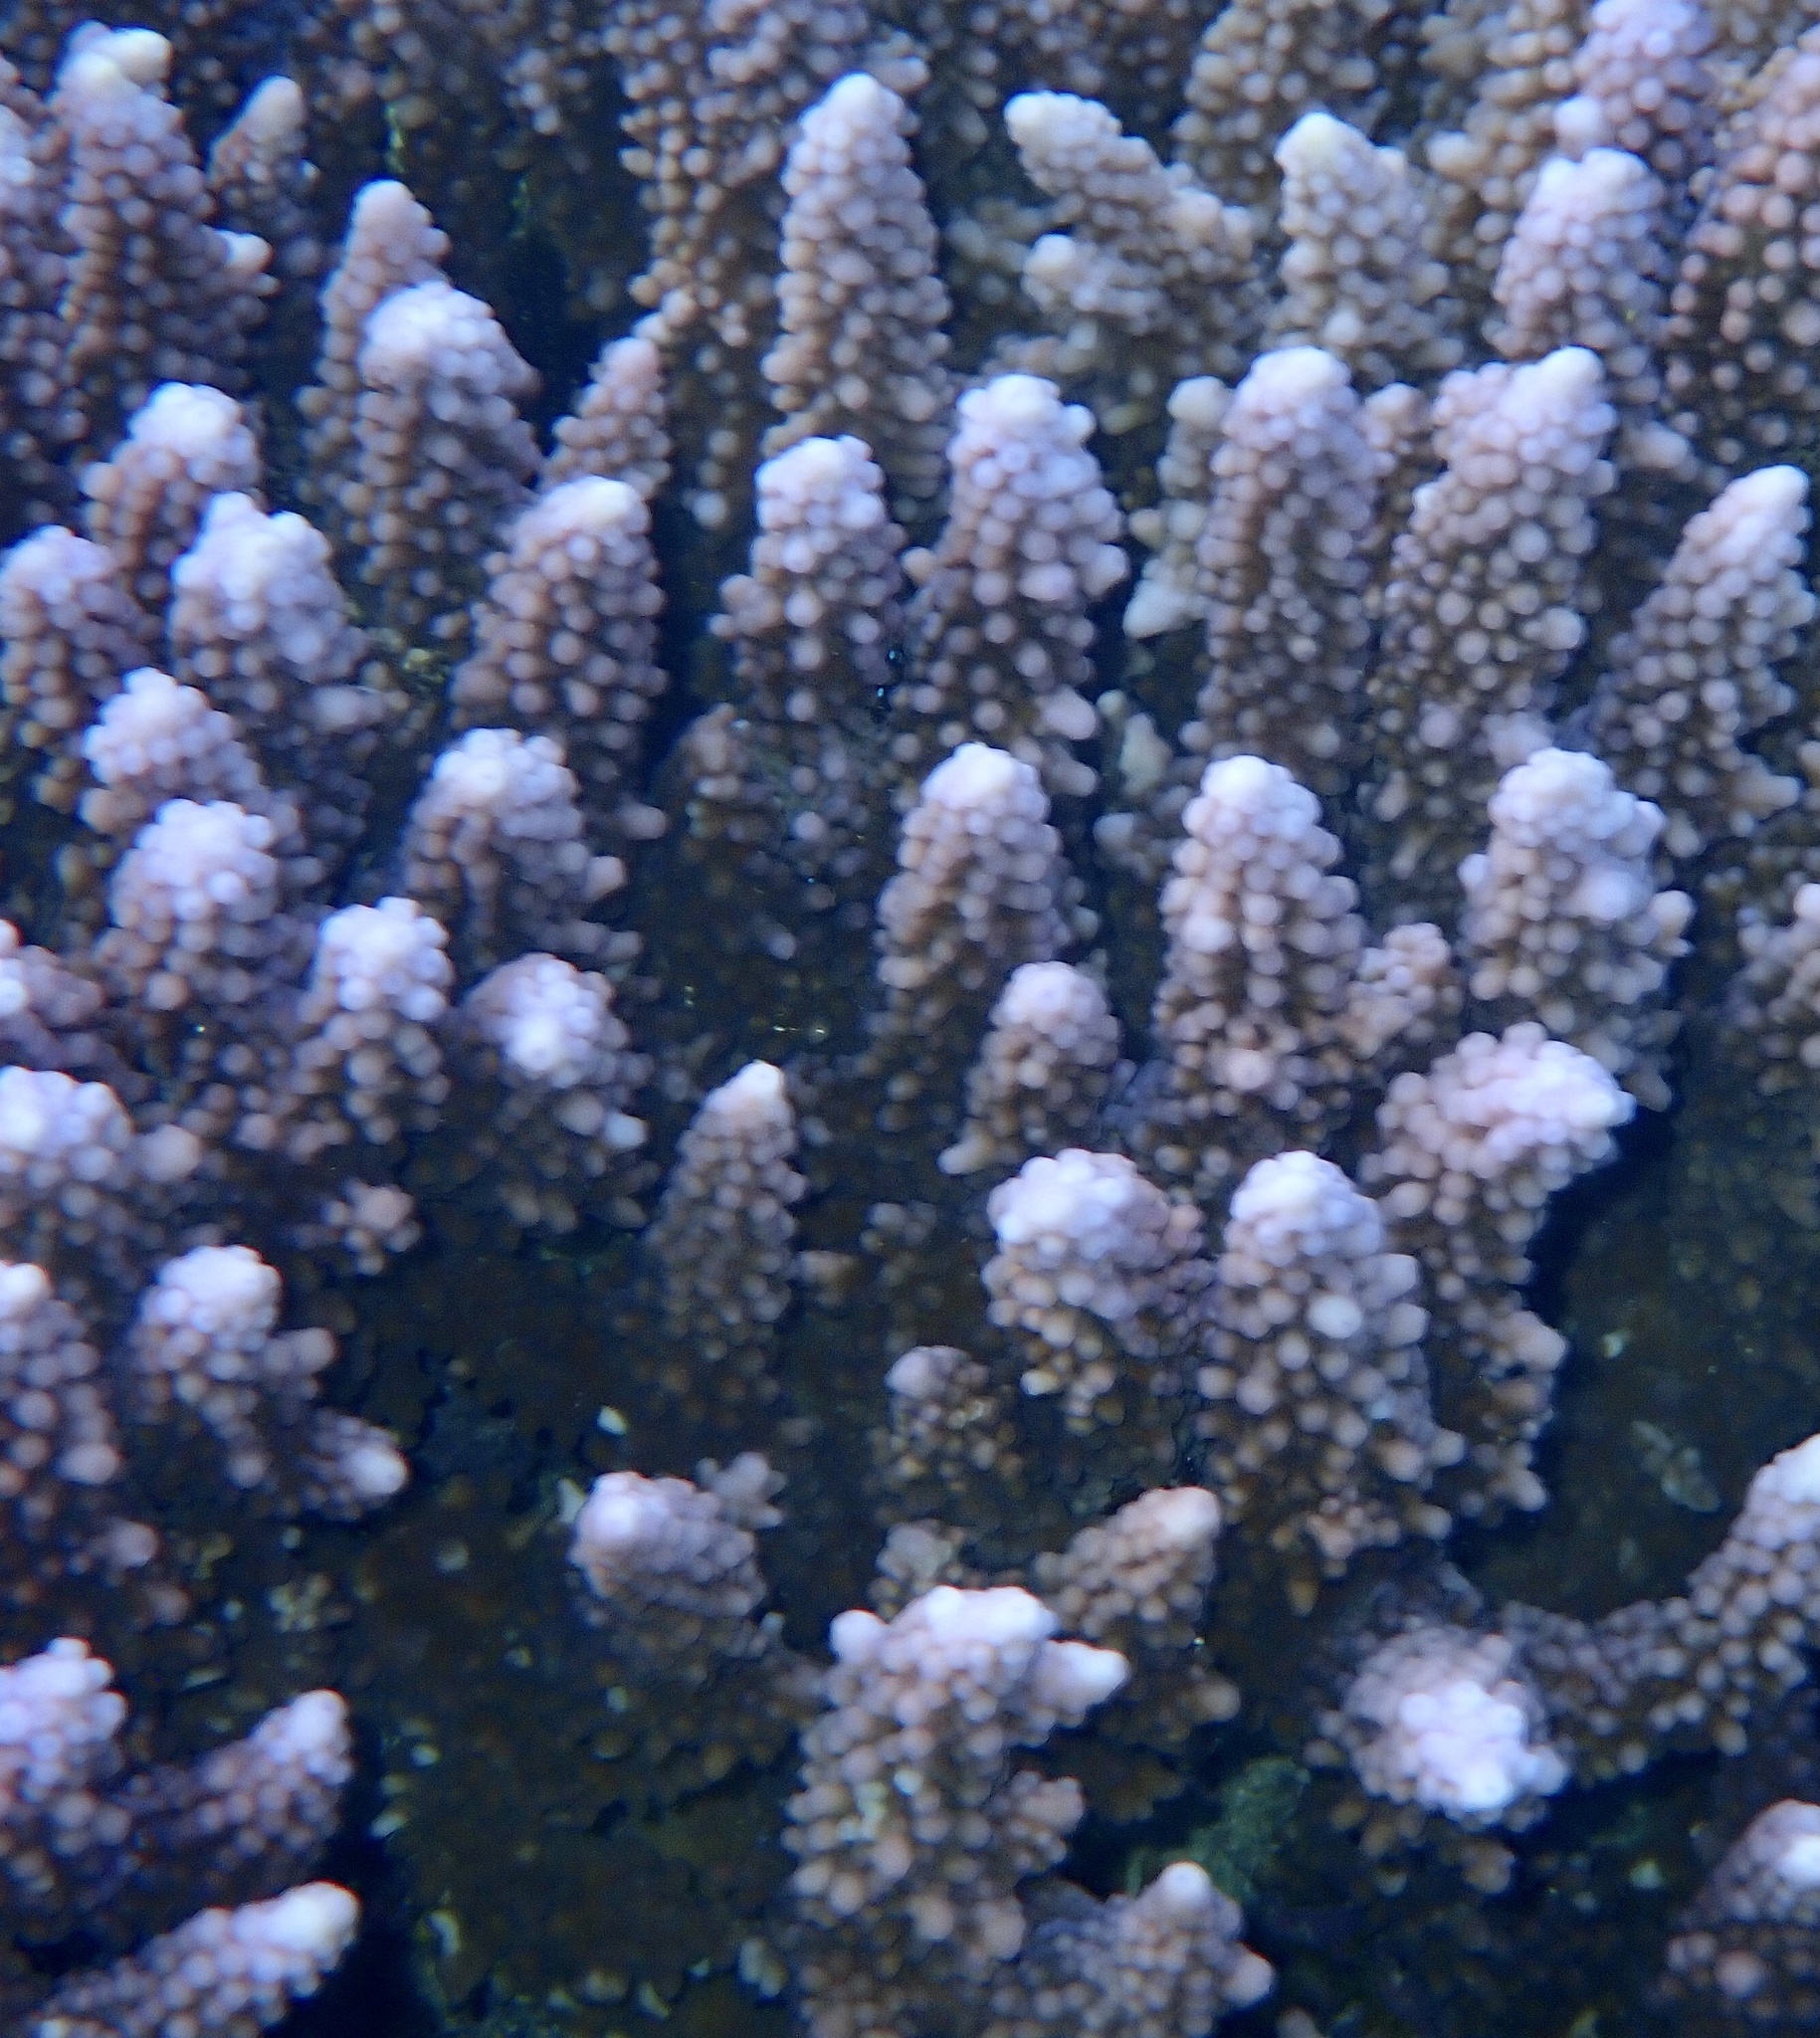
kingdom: Animalia
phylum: Cnidaria
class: Anthozoa
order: Scleractinia
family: Acroporidae
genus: Acropora
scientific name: Acropora hemprichii
